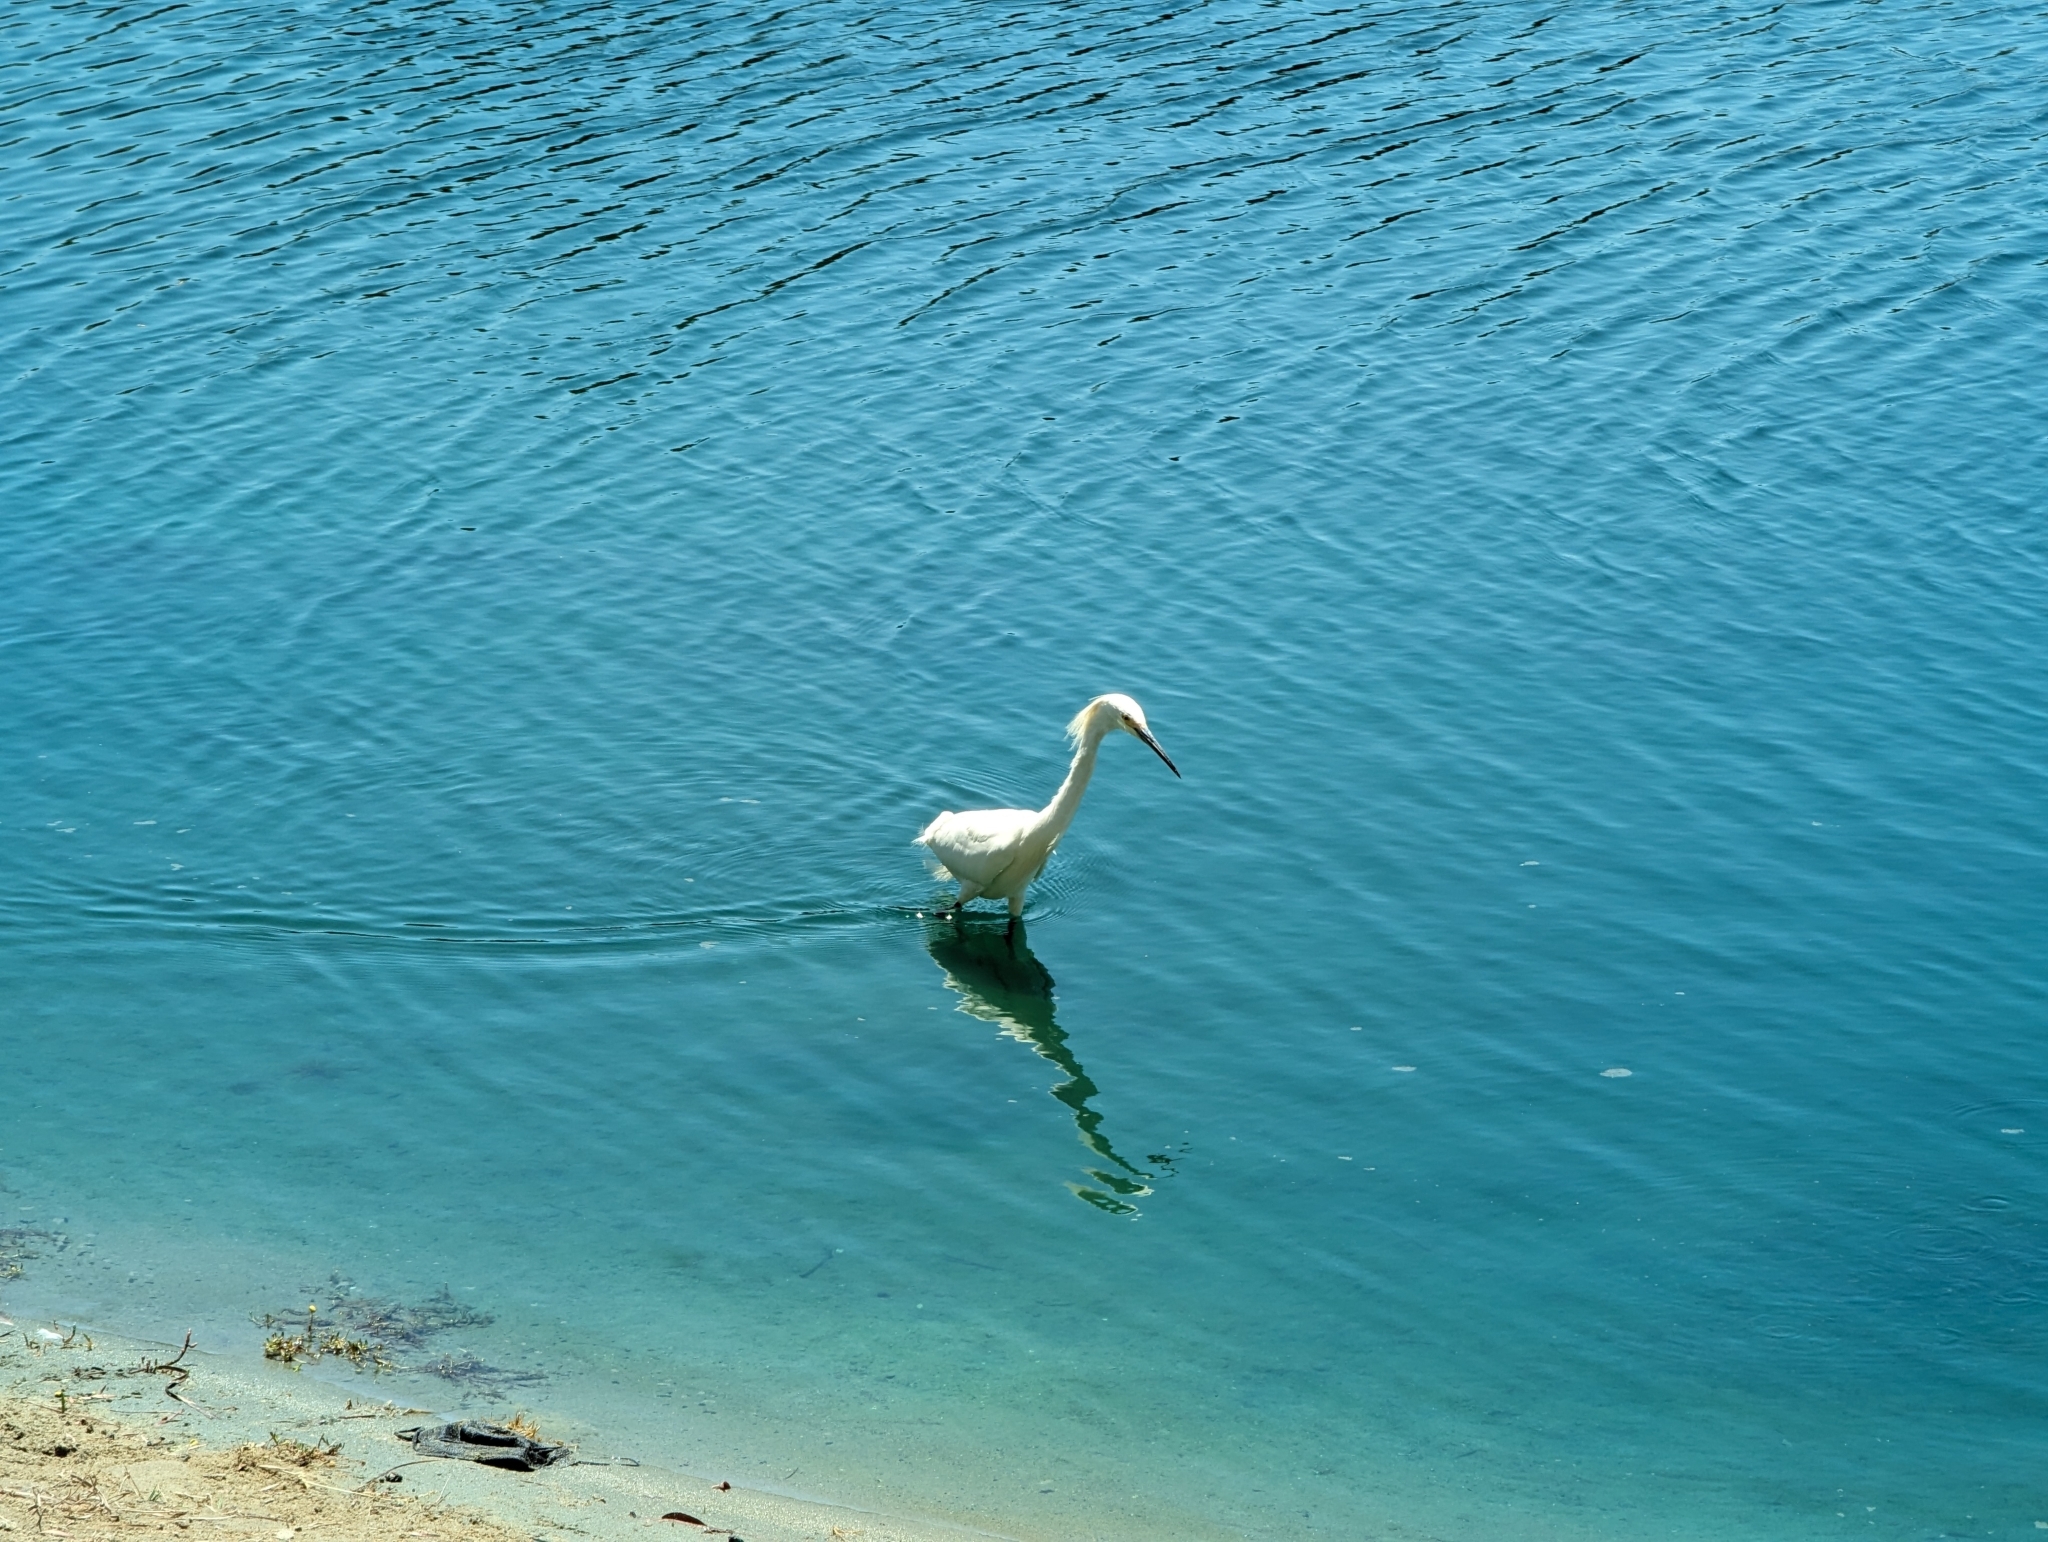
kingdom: Animalia
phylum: Chordata
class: Aves
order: Pelecaniformes
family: Ardeidae
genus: Egretta
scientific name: Egretta thula
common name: Snowy egret
